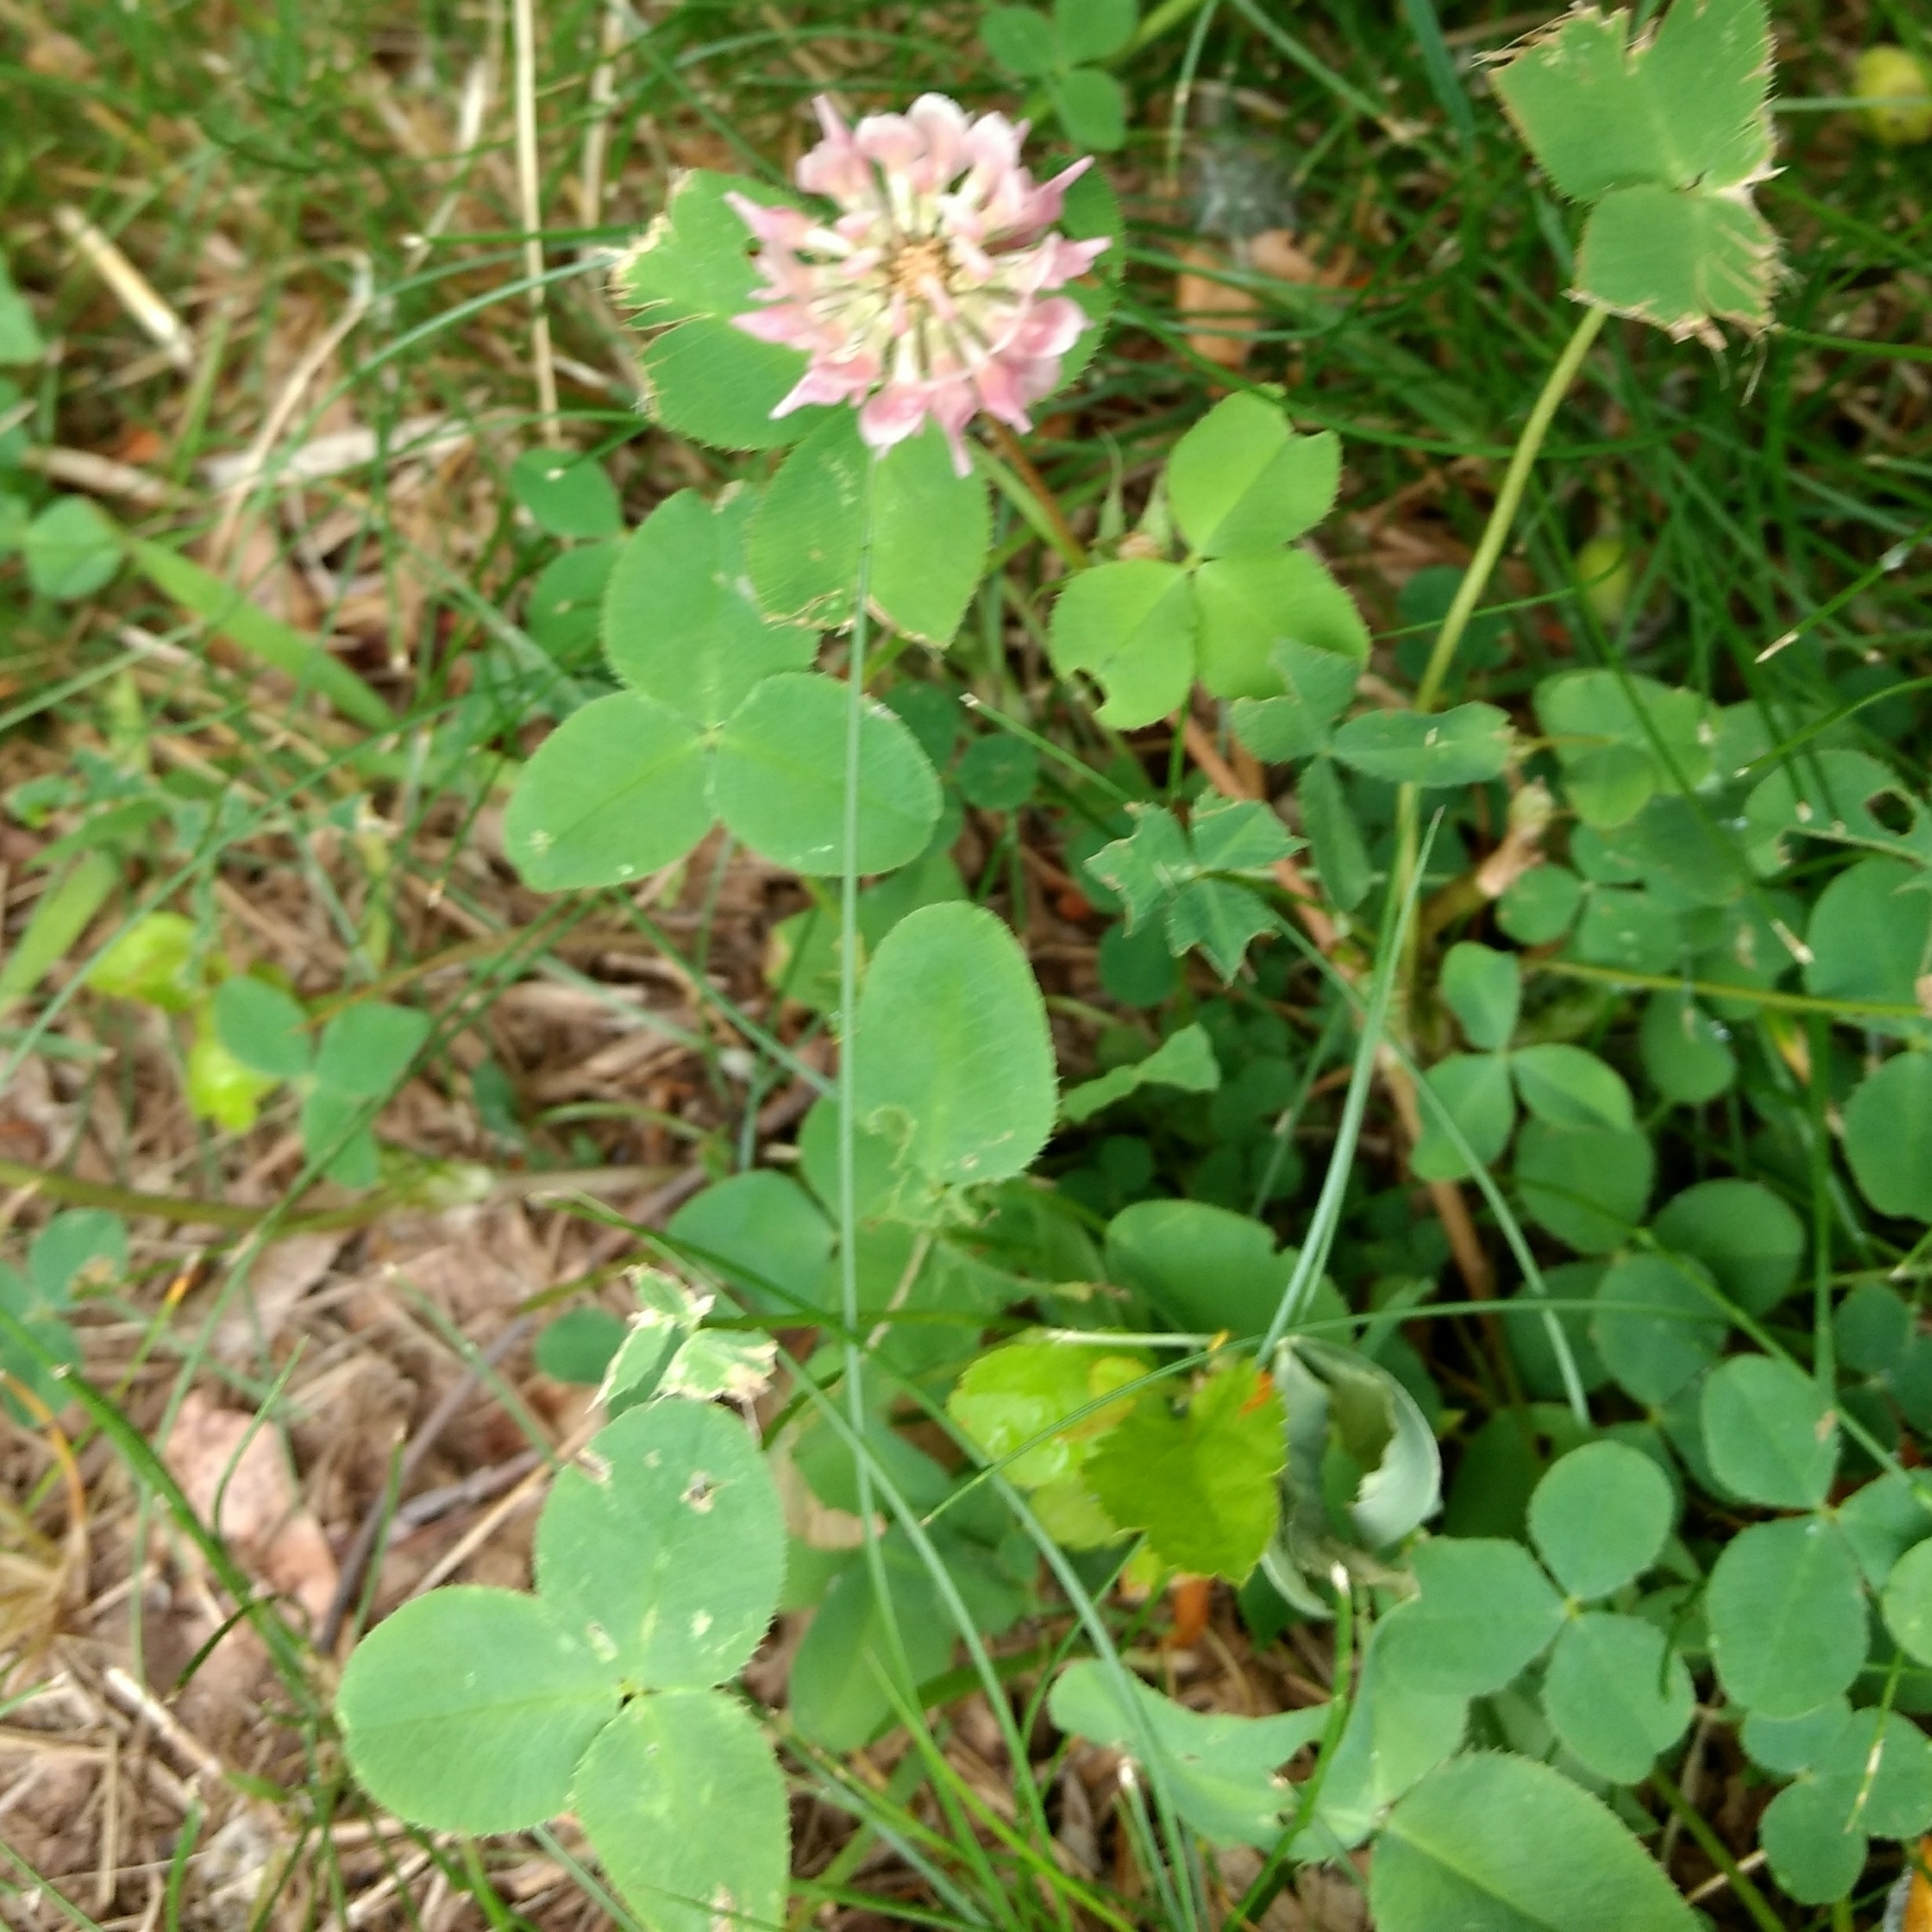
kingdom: Plantae
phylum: Tracheophyta
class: Magnoliopsida
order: Fabales
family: Fabaceae
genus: Trifolium
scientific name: Trifolium hybridum
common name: Alsike clover
